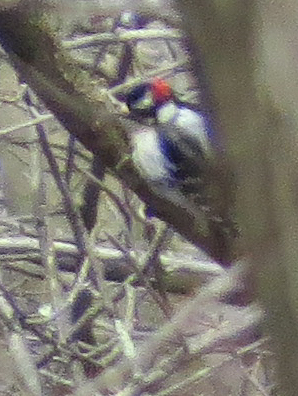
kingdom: Animalia
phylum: Chordata
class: Aves
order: Piciformes
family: Picidae
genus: Dryobates
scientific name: Dryobates pubescens
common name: Downy woodpecker
